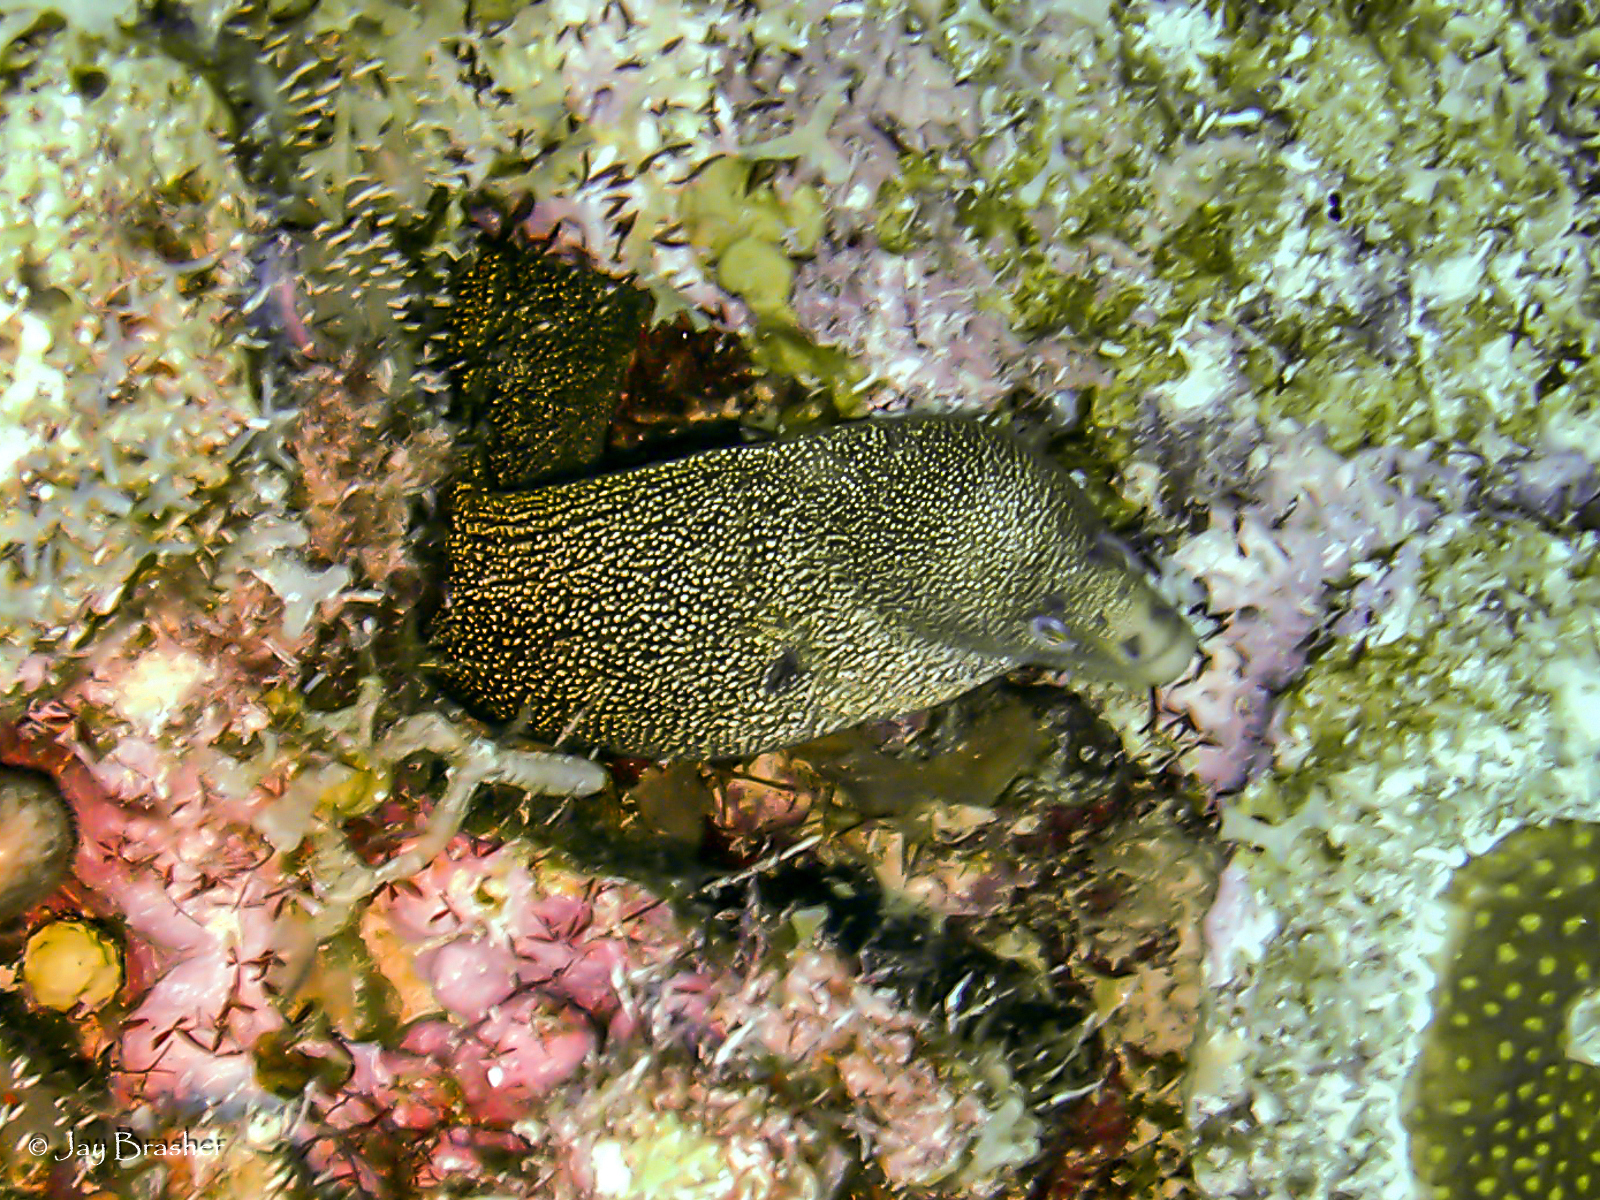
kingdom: Animalia
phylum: Chordata
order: Anguilliformes
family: Muraenidae
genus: Gymnothorax
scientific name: Gymnothorax miliaris
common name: Goldentail moray
